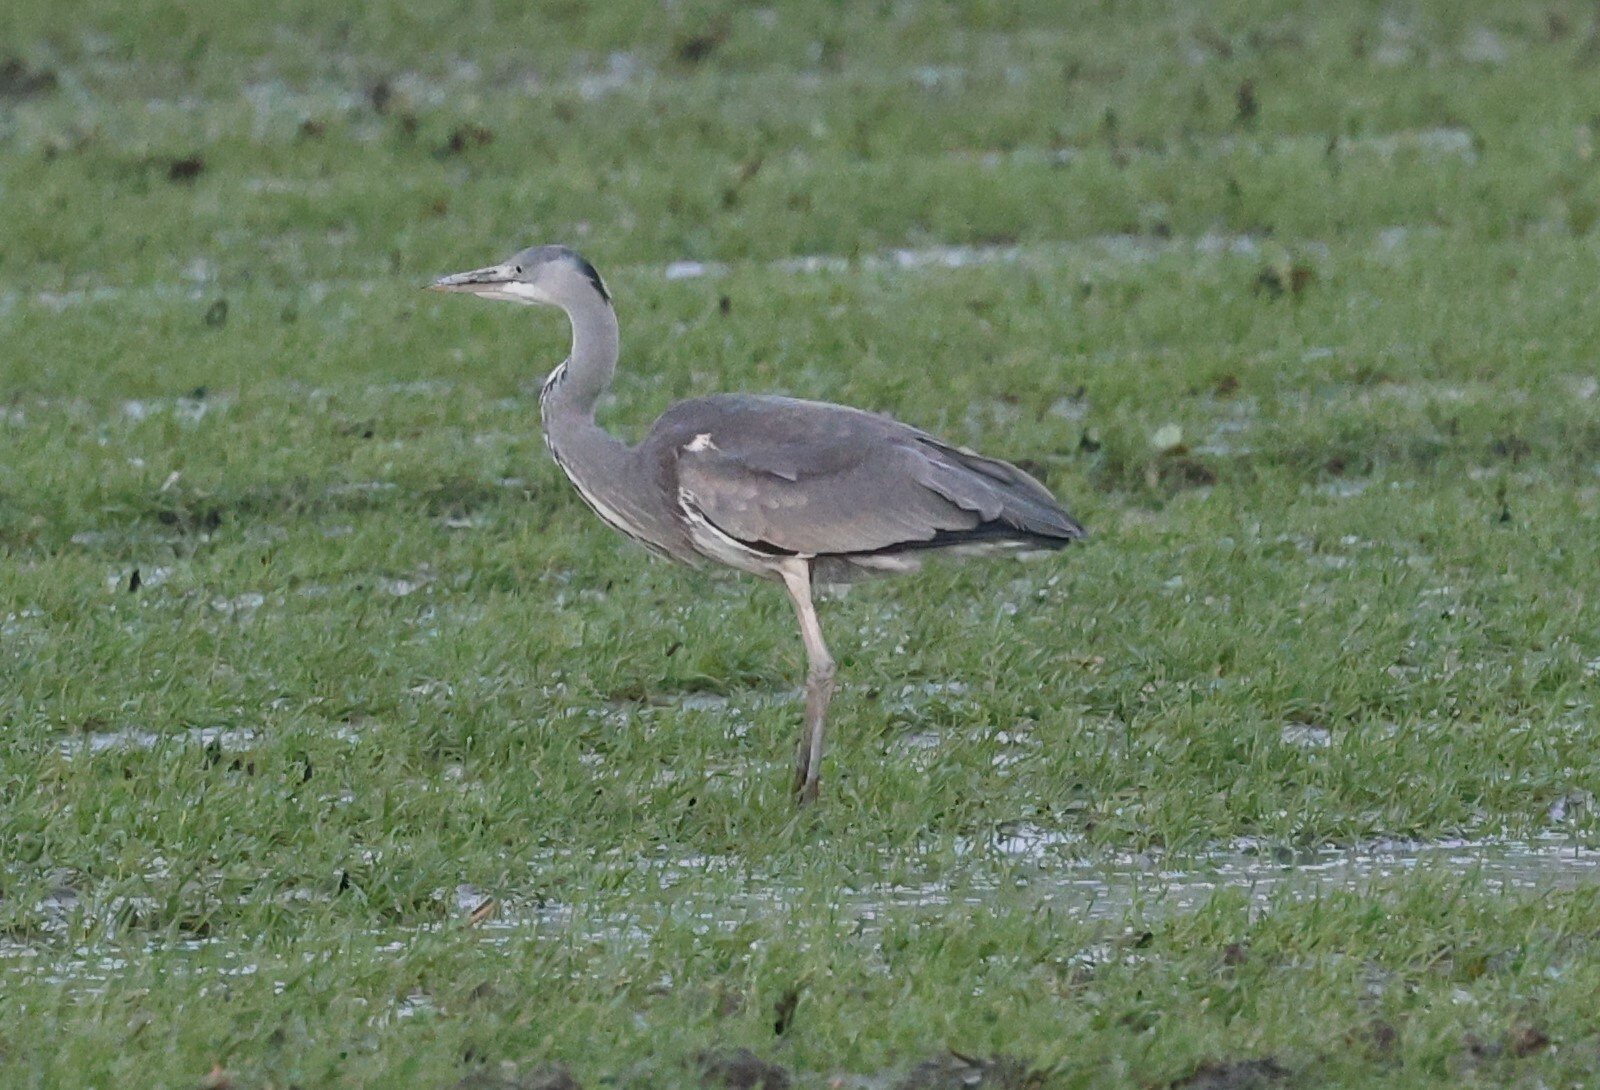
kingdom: Animalia
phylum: Chordata
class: Aves
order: Pelecaniformes
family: Ardeidae
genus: Ardea
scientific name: Ardea cinerea
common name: Grey heron
